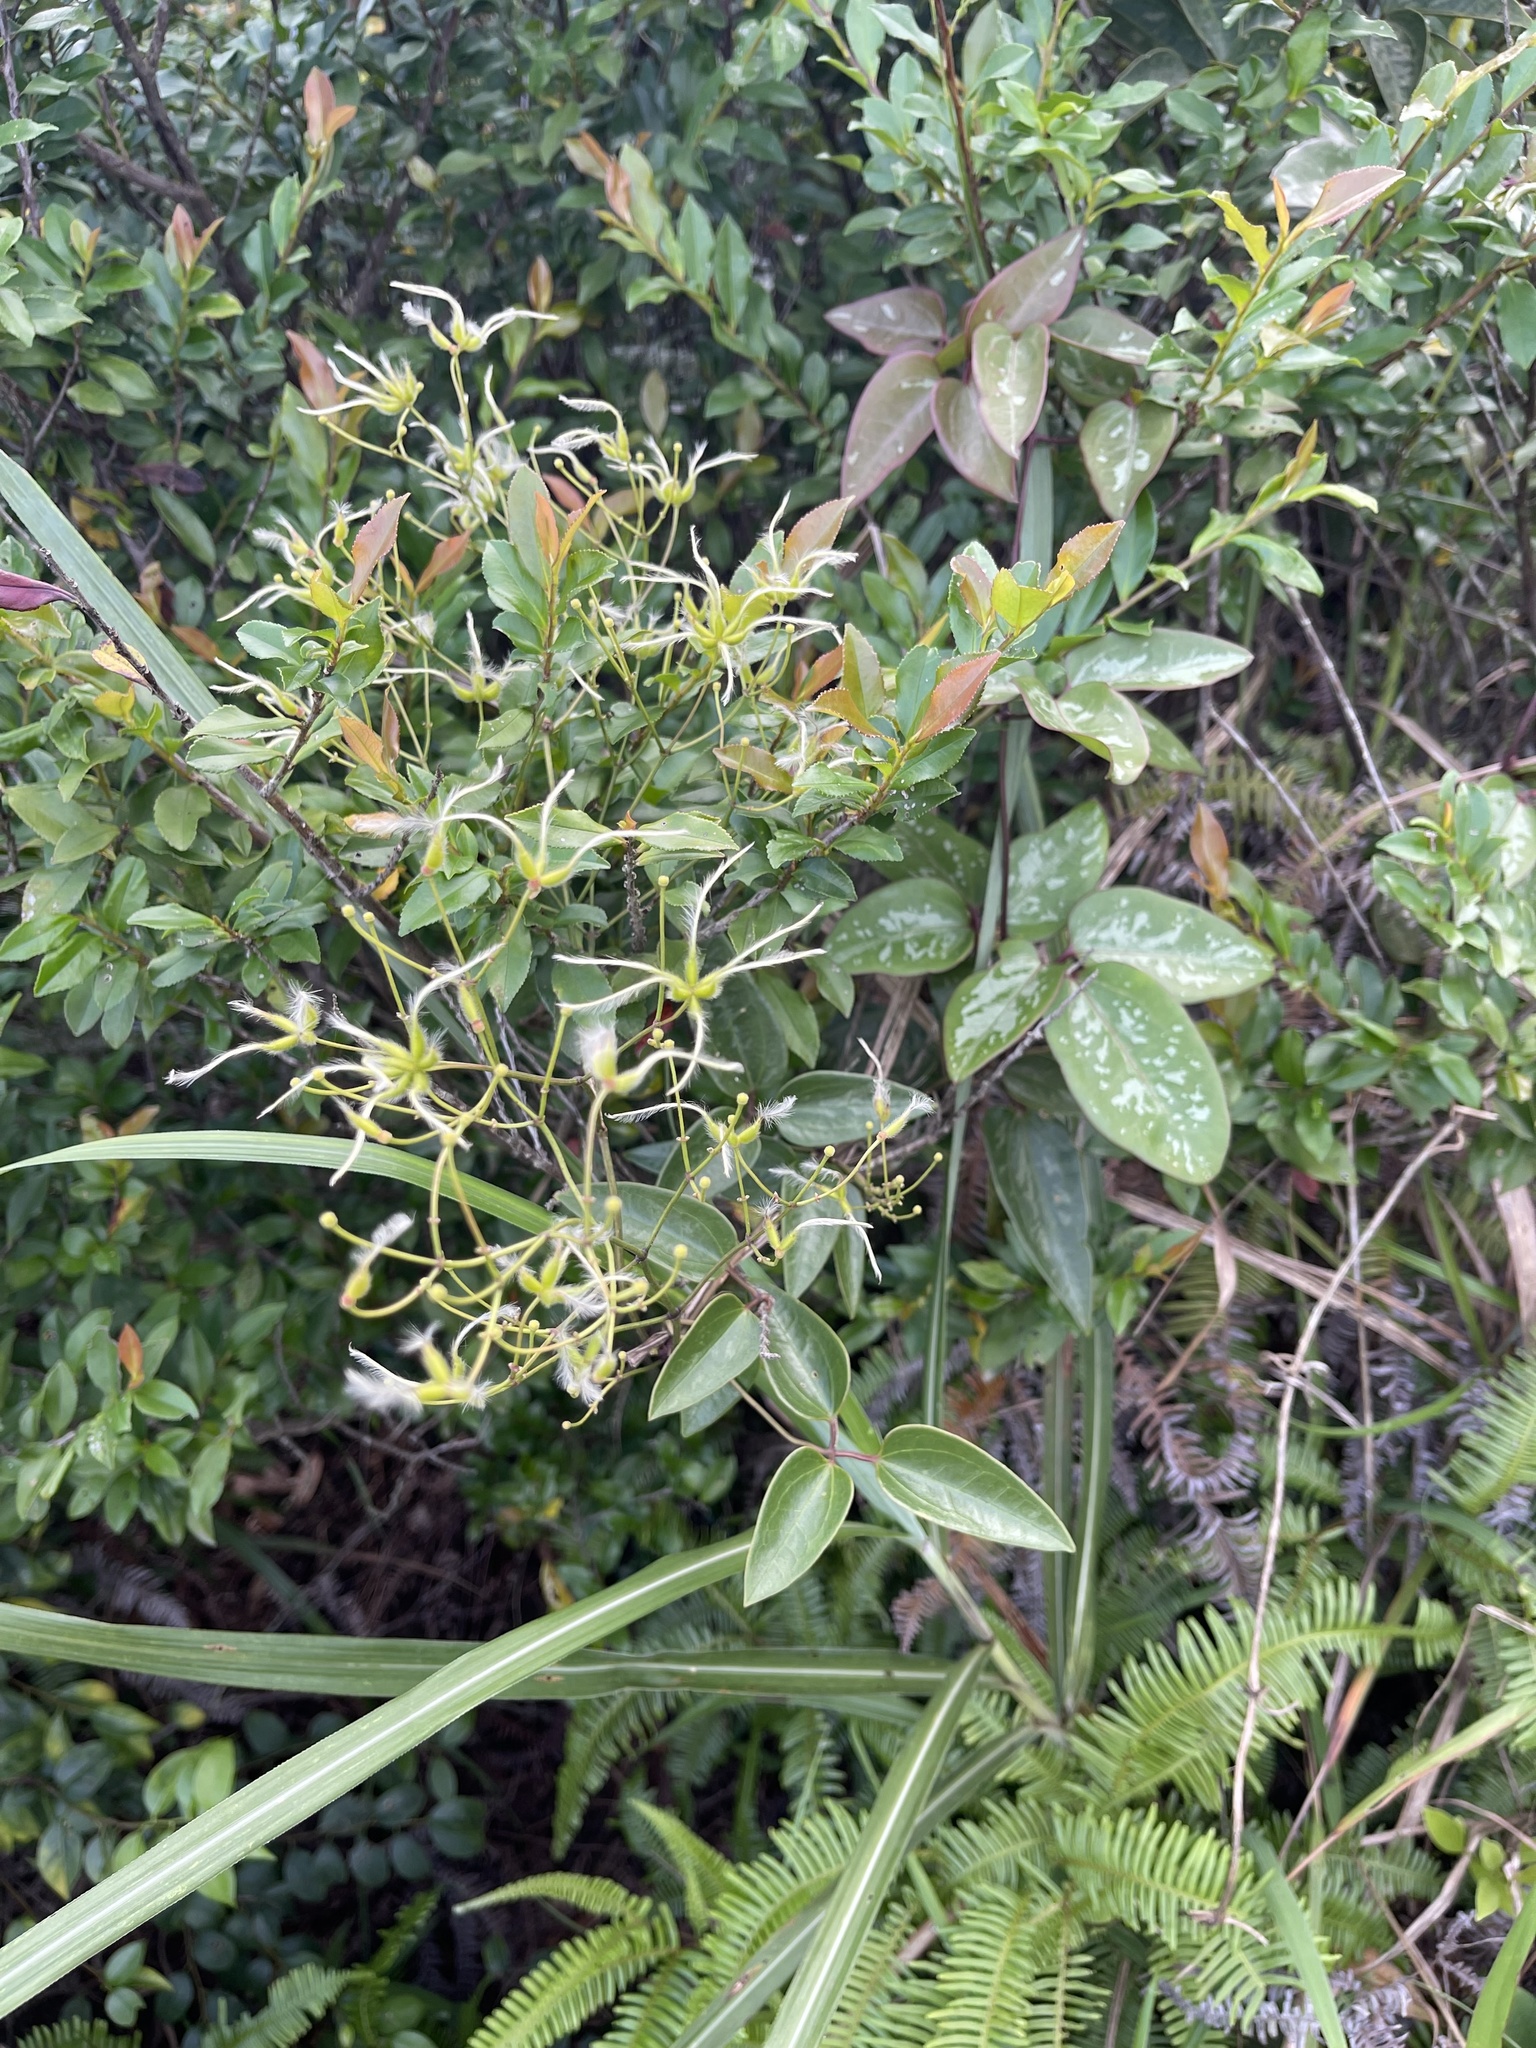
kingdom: Plantae
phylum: Tracheophyta
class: Magnoliopsida
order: Ranunculales
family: Ranunculaceae
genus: Clematis
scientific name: Clematis meyeniana
